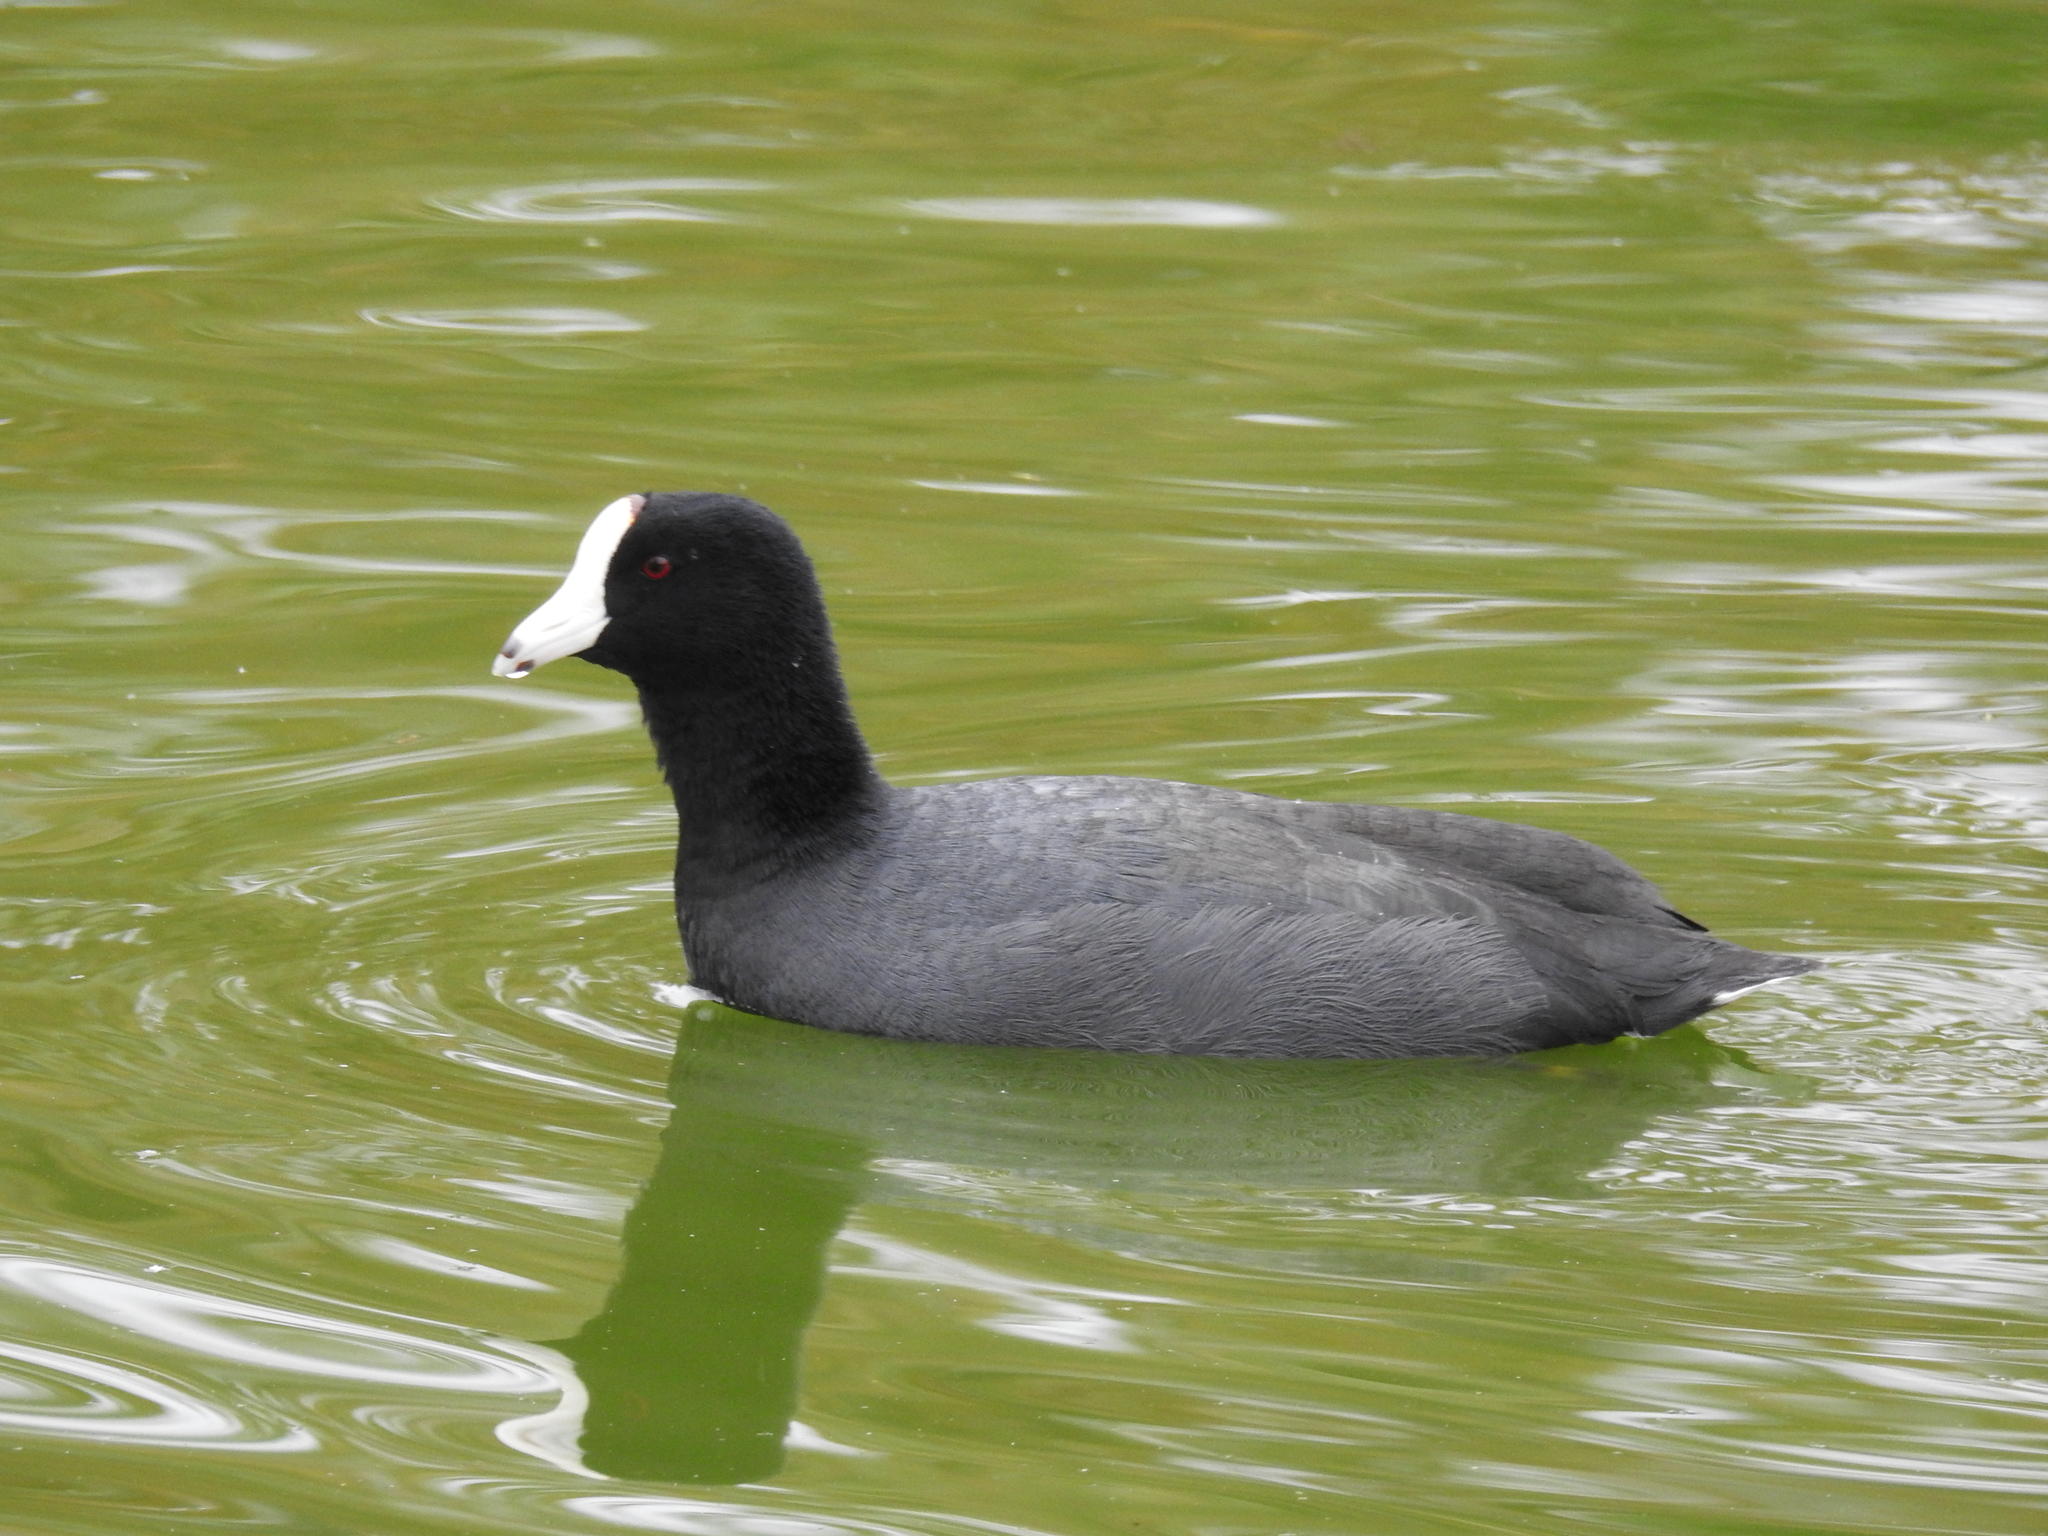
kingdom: Animalia
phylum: Chordata
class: Aves
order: Gruiformes
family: Rallidae
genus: Fulica
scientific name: Fulica americana
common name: American coot
